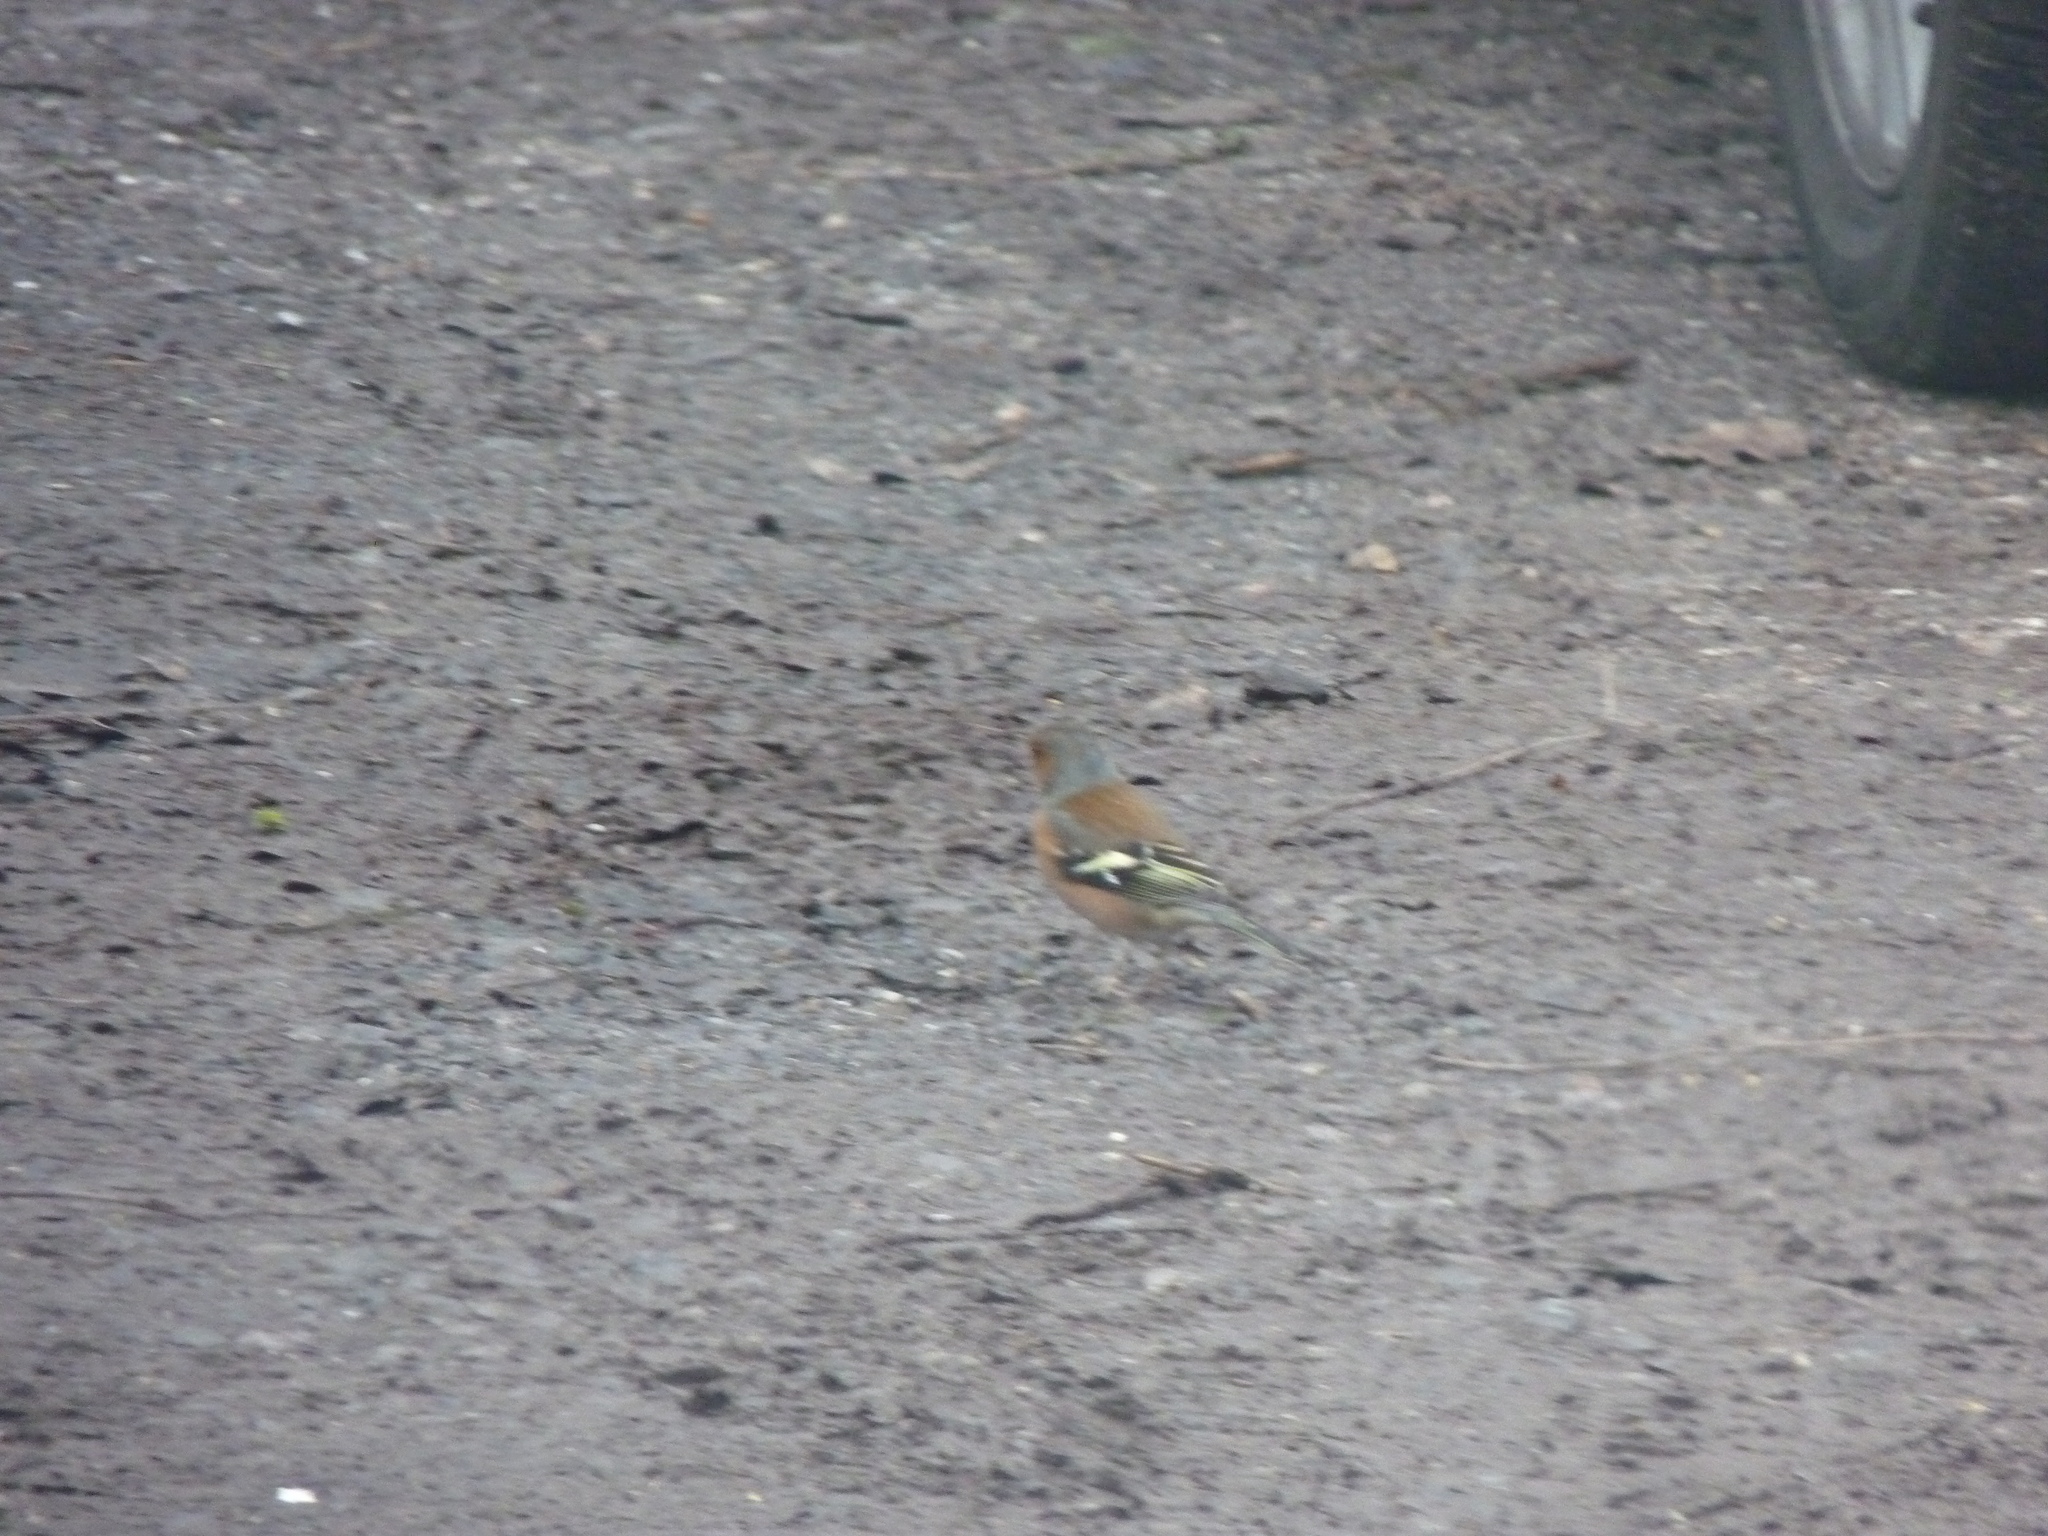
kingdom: Animalia
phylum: Chordata
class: Aves
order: Passeriformes
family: Fringillidae
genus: Fringilla
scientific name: Fringilla coelebs
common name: Common chaffinch
